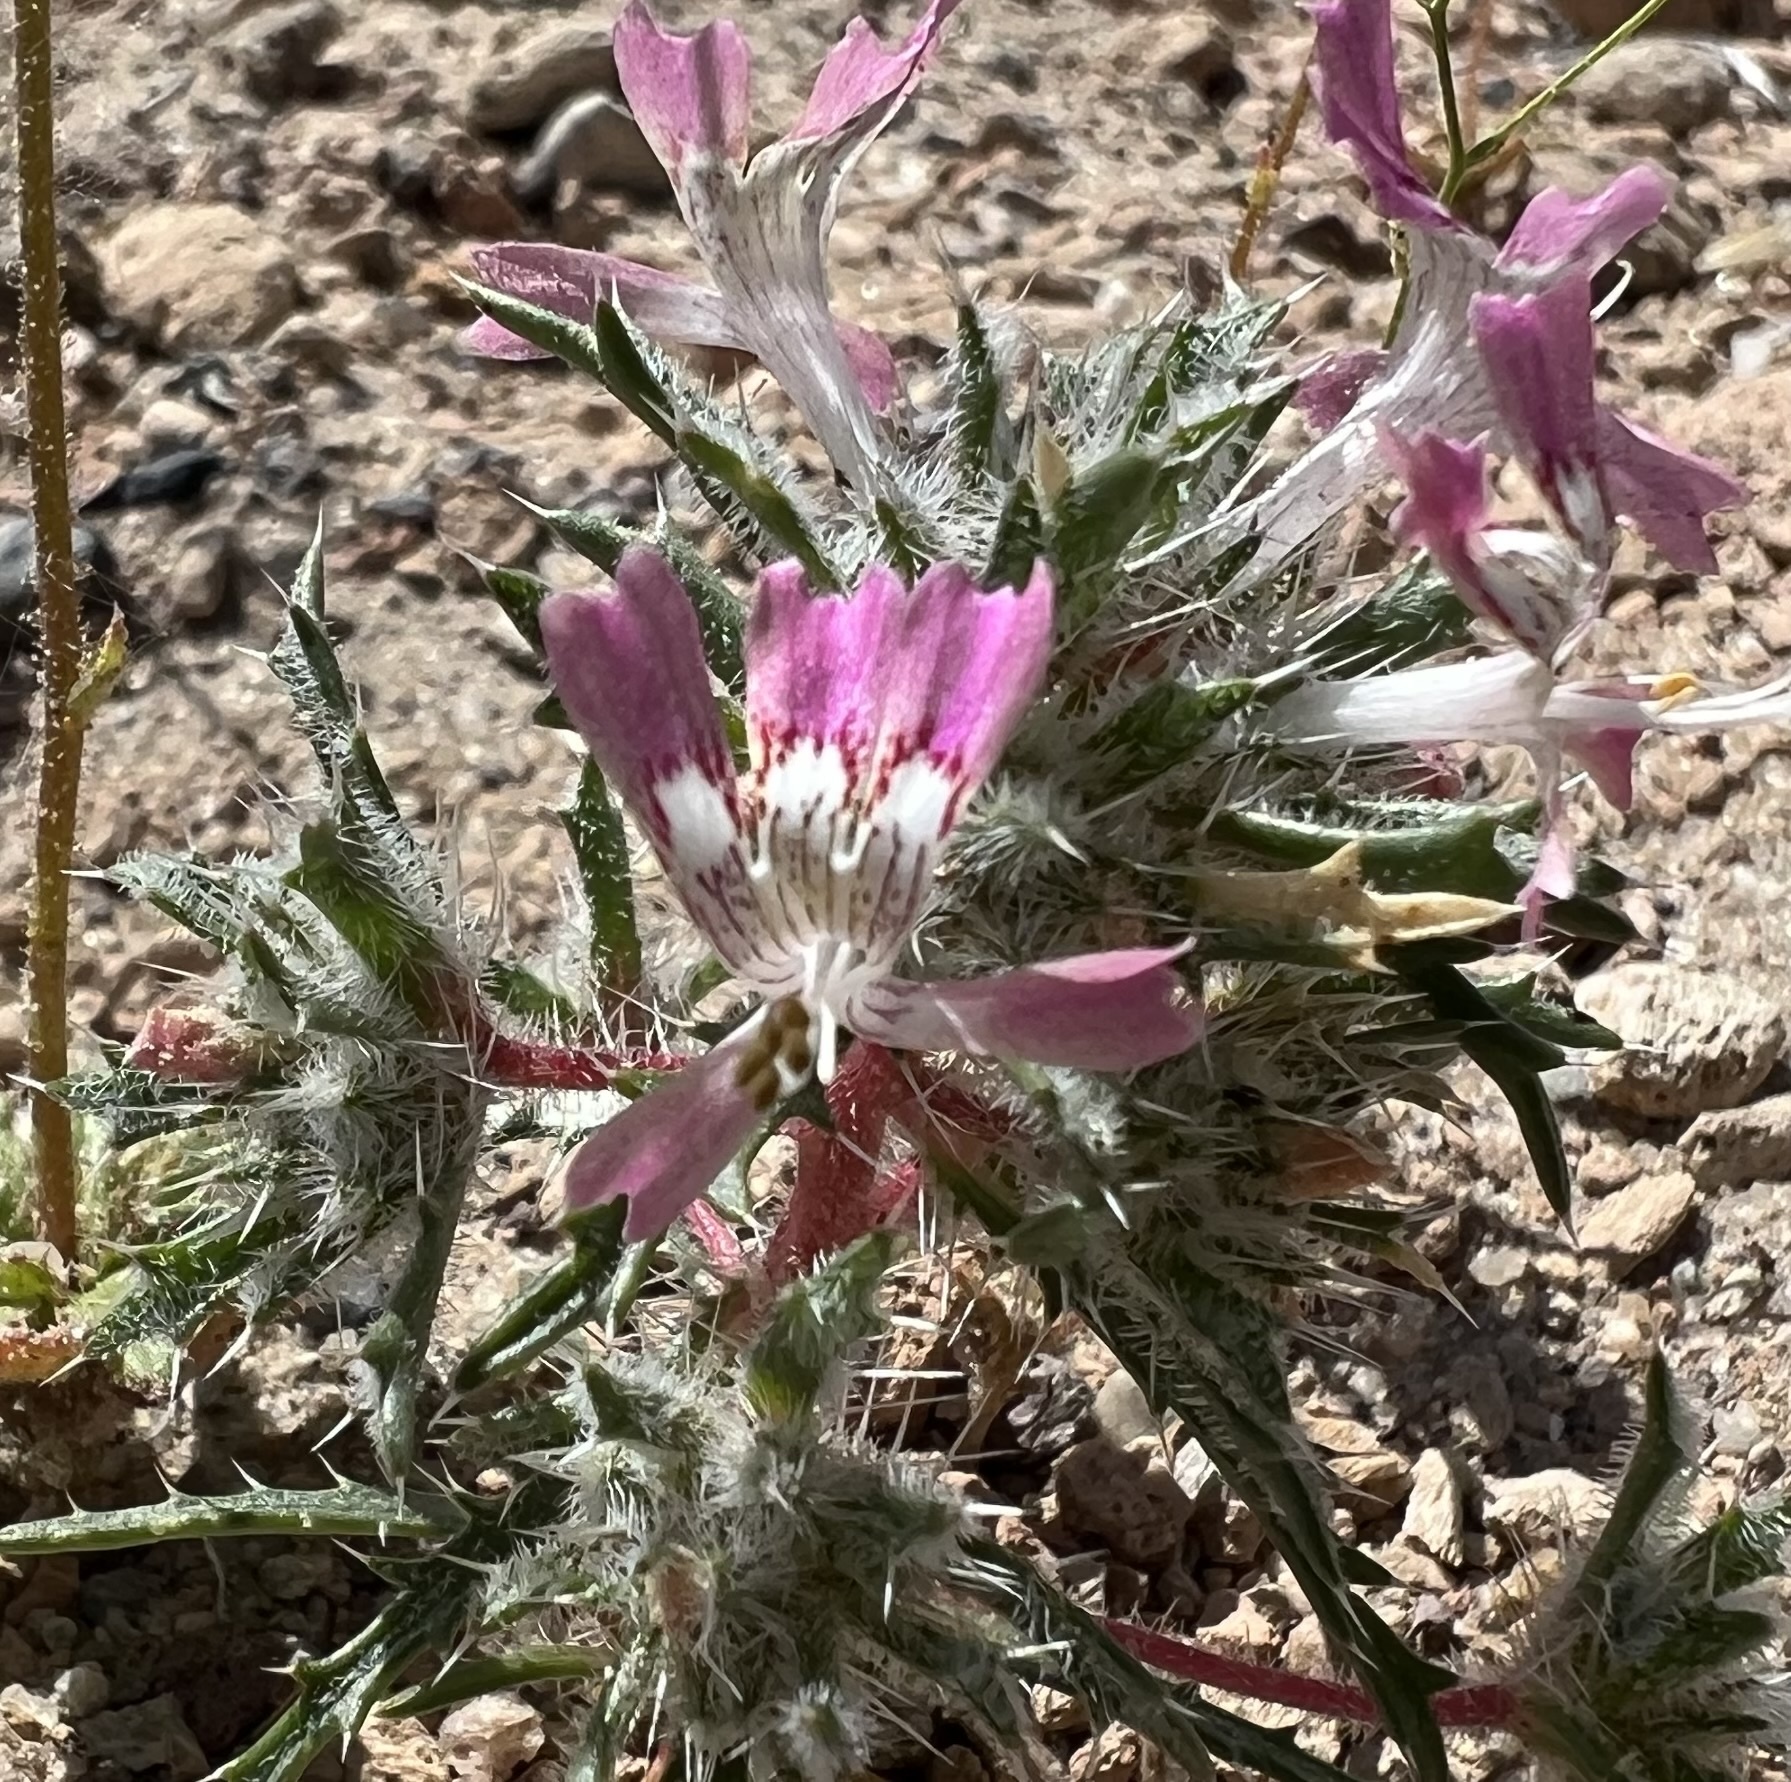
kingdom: Plantae
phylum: Tracheophyta
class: Magnoliopsida
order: Ericales
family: Polemoniaceae
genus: Loeseliastrum
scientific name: Loeseliastrum matthewsii
